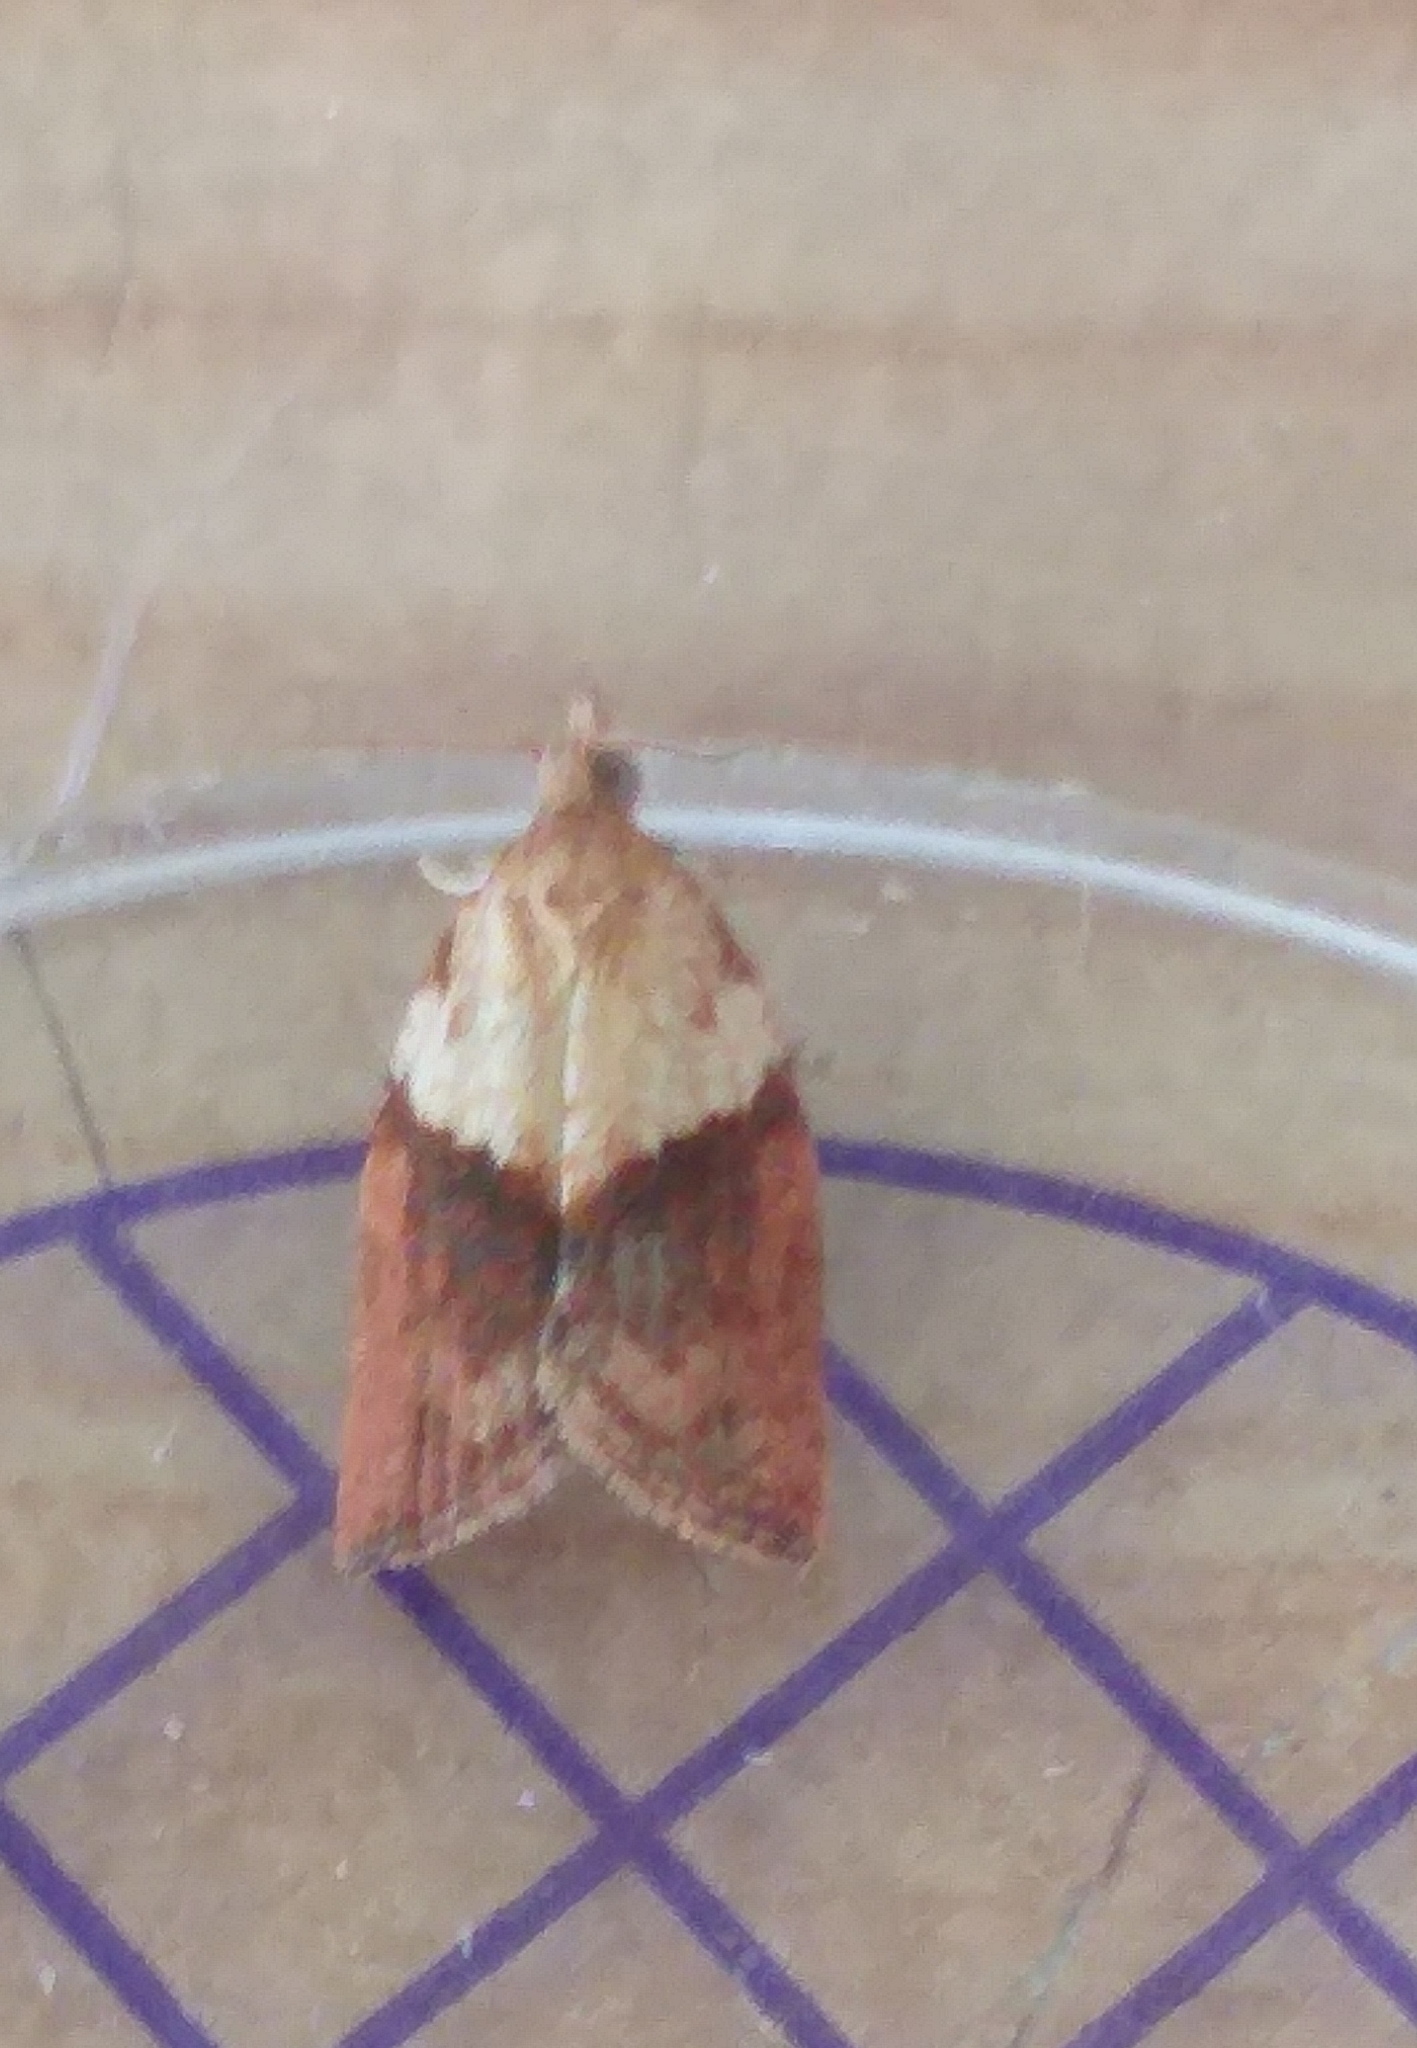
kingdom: Animalia
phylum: Arthropoda
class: Insecta
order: Lepidoptera
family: Tortricidae
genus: Epiphyas
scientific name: Epiphyas postvittana
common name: Light brown apple moth
